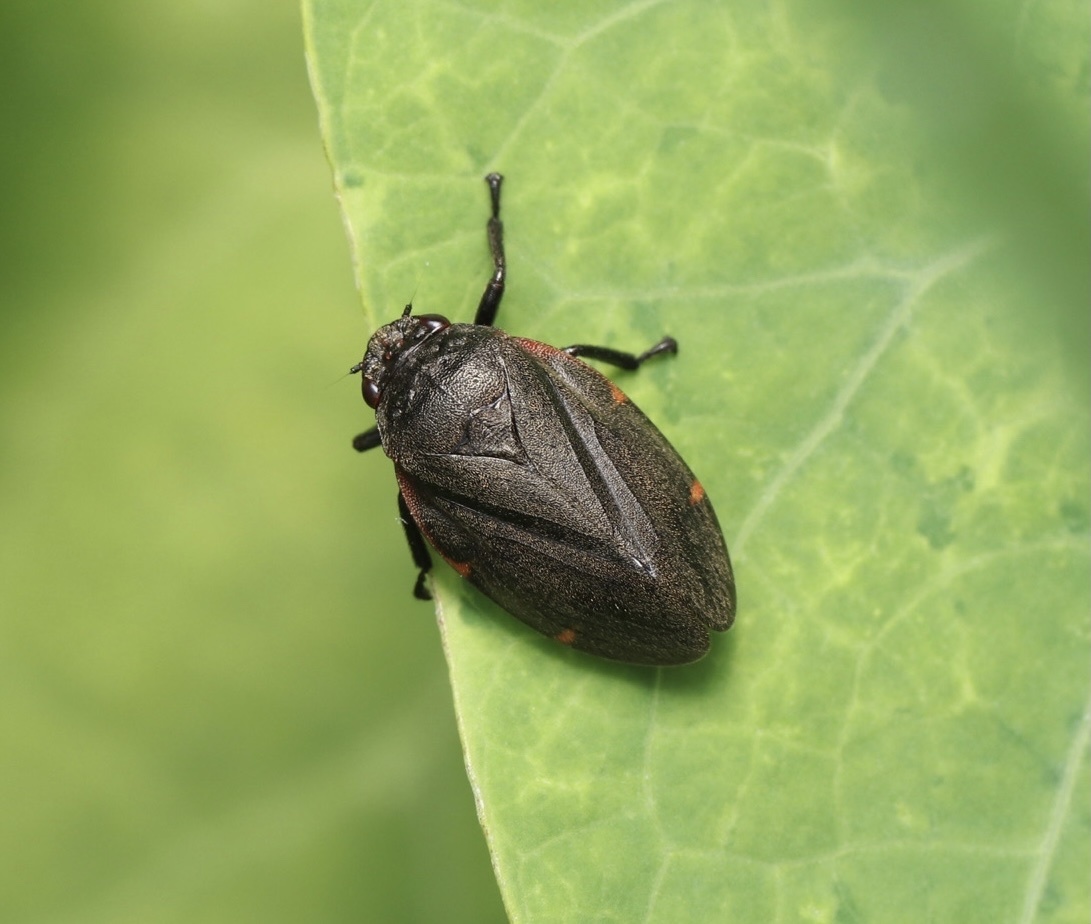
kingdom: Animalia
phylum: Arthropoda
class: Insecta
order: Hemiptera
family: Cercopidae
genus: Prosapia
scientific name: Prosapia
